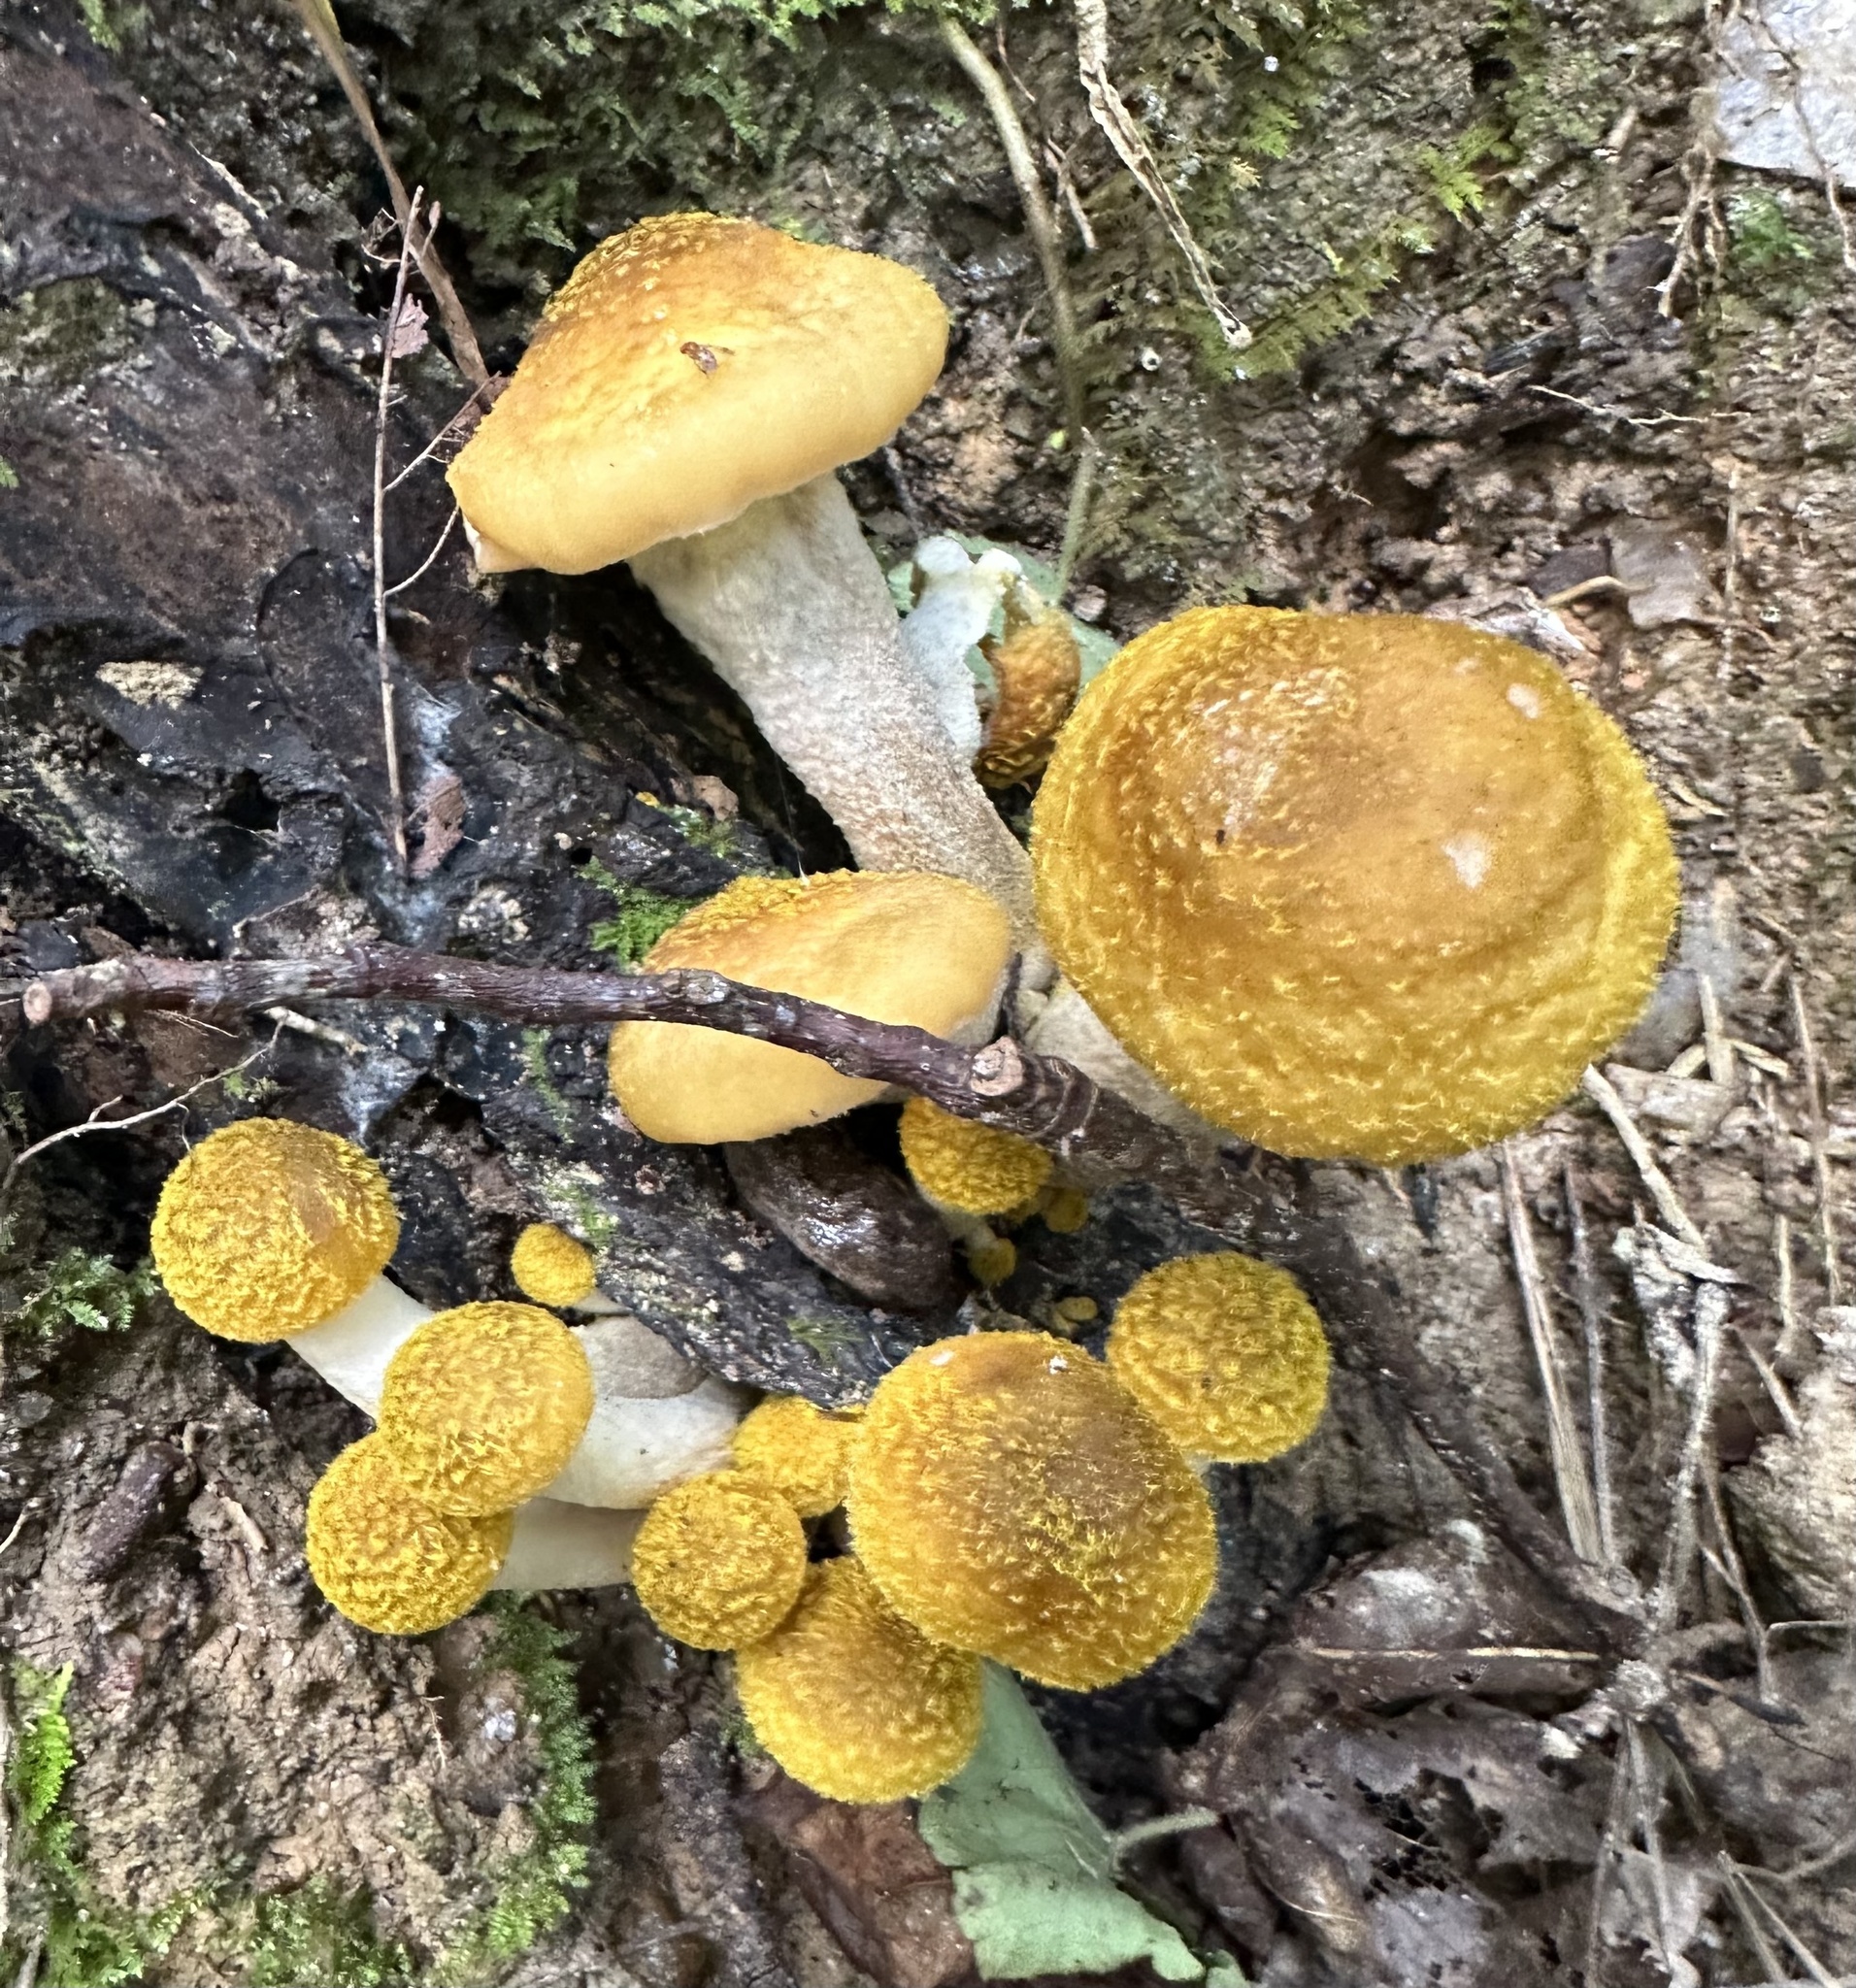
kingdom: Fungi
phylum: Basidiomycota
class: Agaricomycetes
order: Agaricales
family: Physalacriaceae
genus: Armillaria
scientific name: Armillaria mellea
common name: Honey fungus
